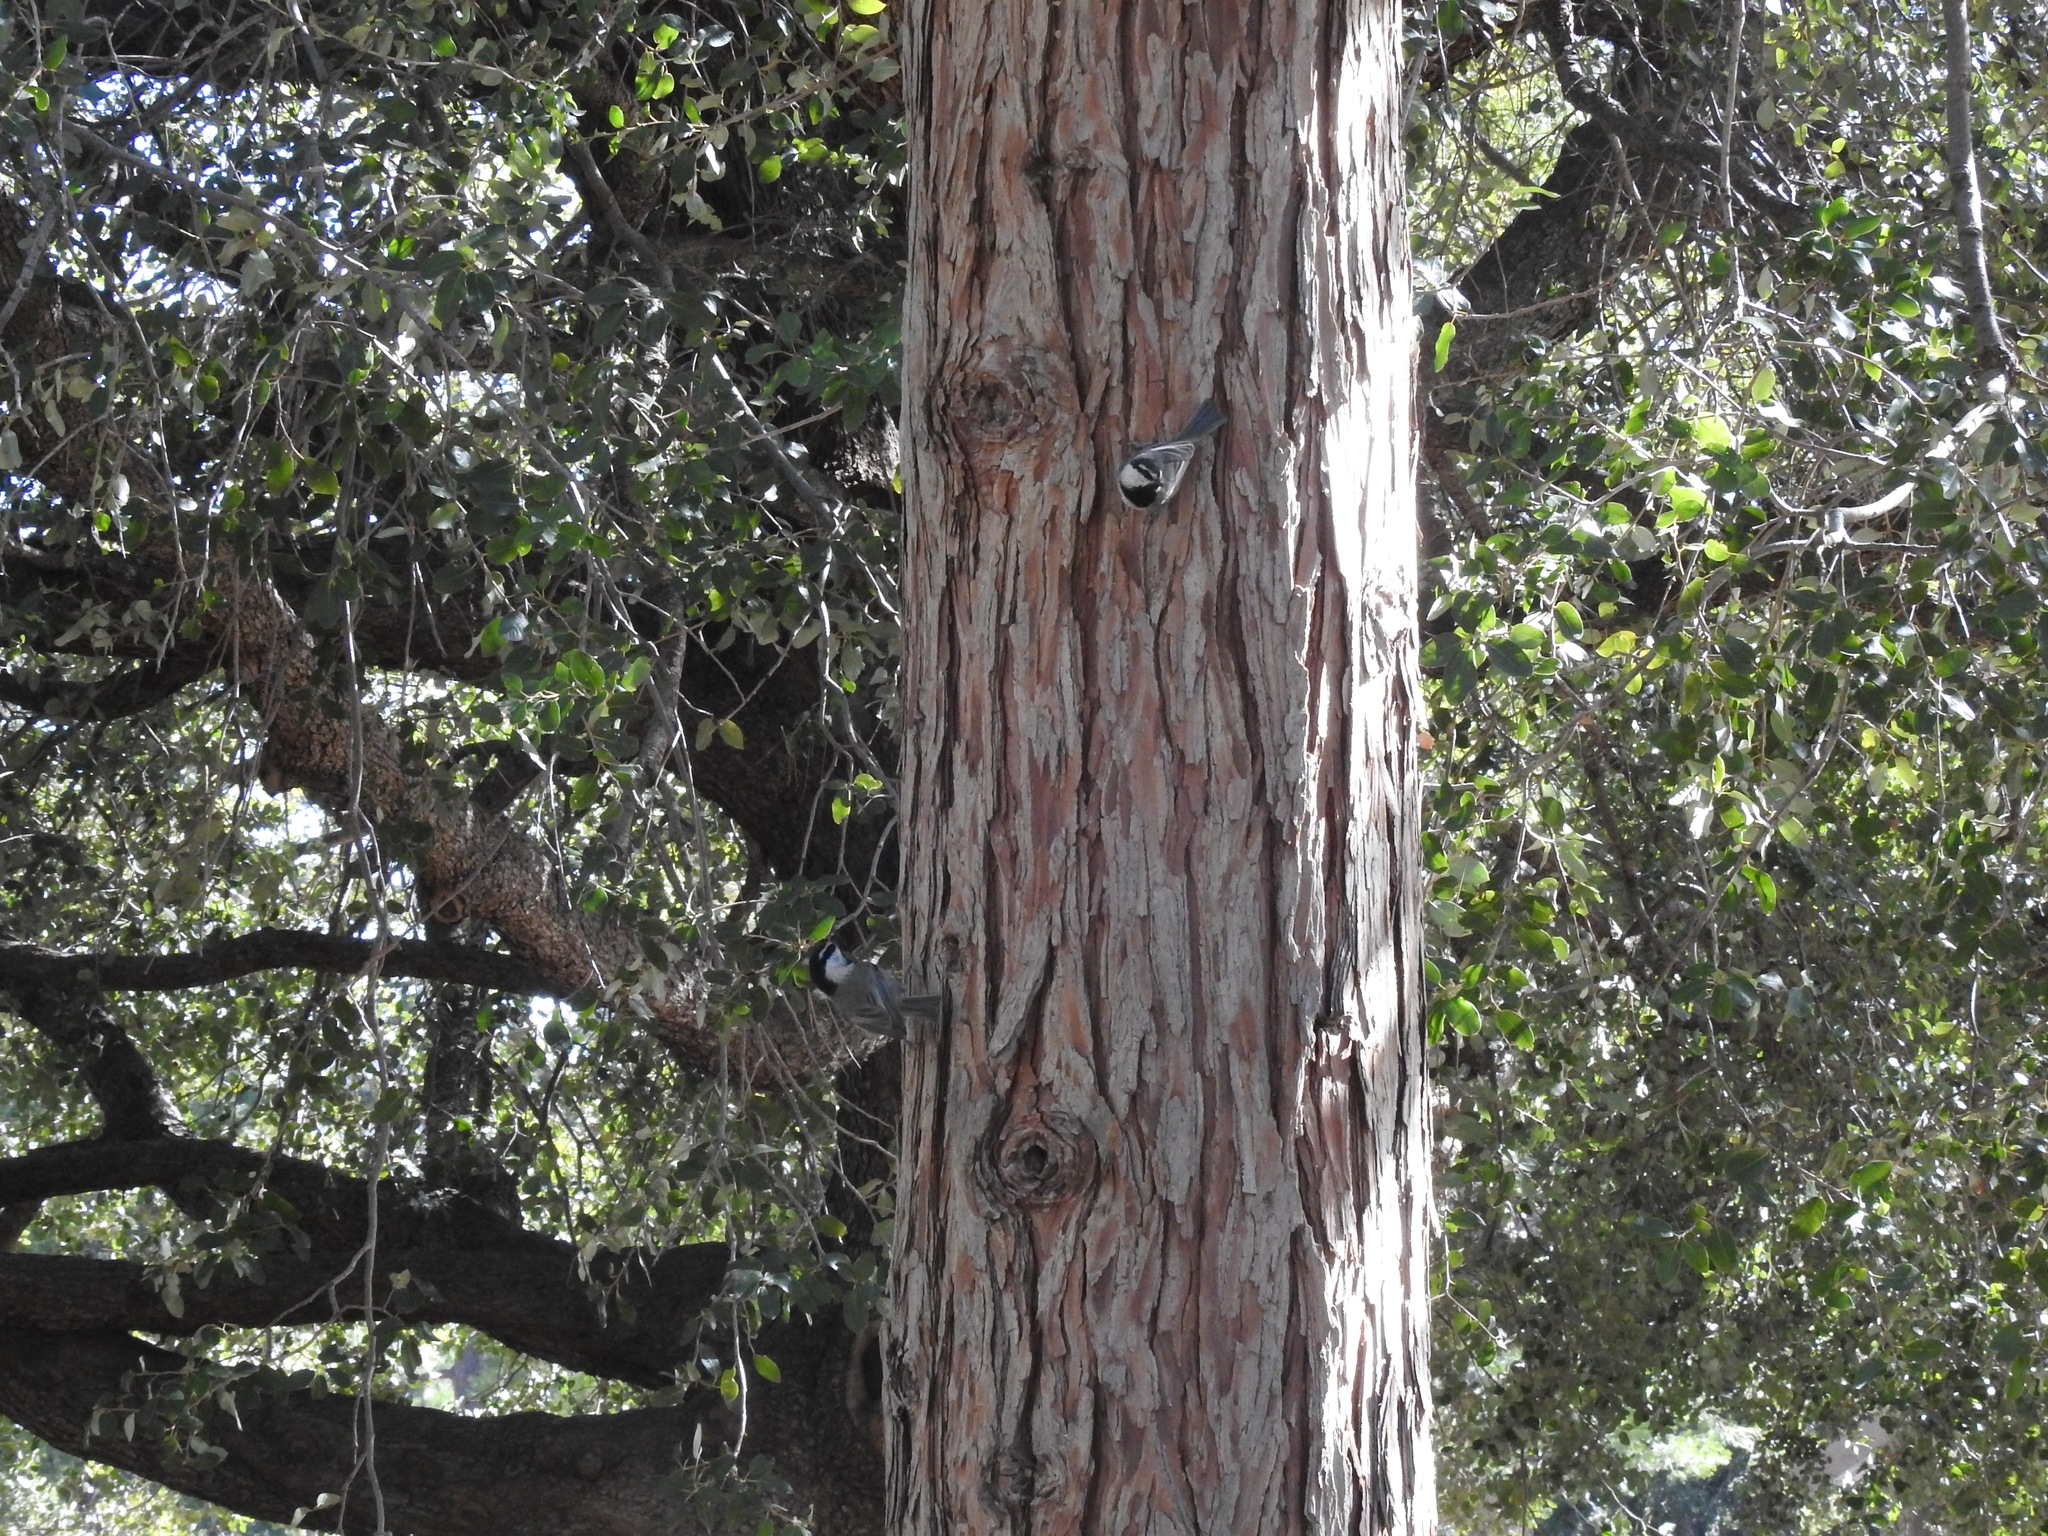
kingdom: Animalia
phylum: Chordata
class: Aves
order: Passeriformes
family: Paridae
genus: Poecile
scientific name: Poecile gambeli
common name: Mountain chickadee
